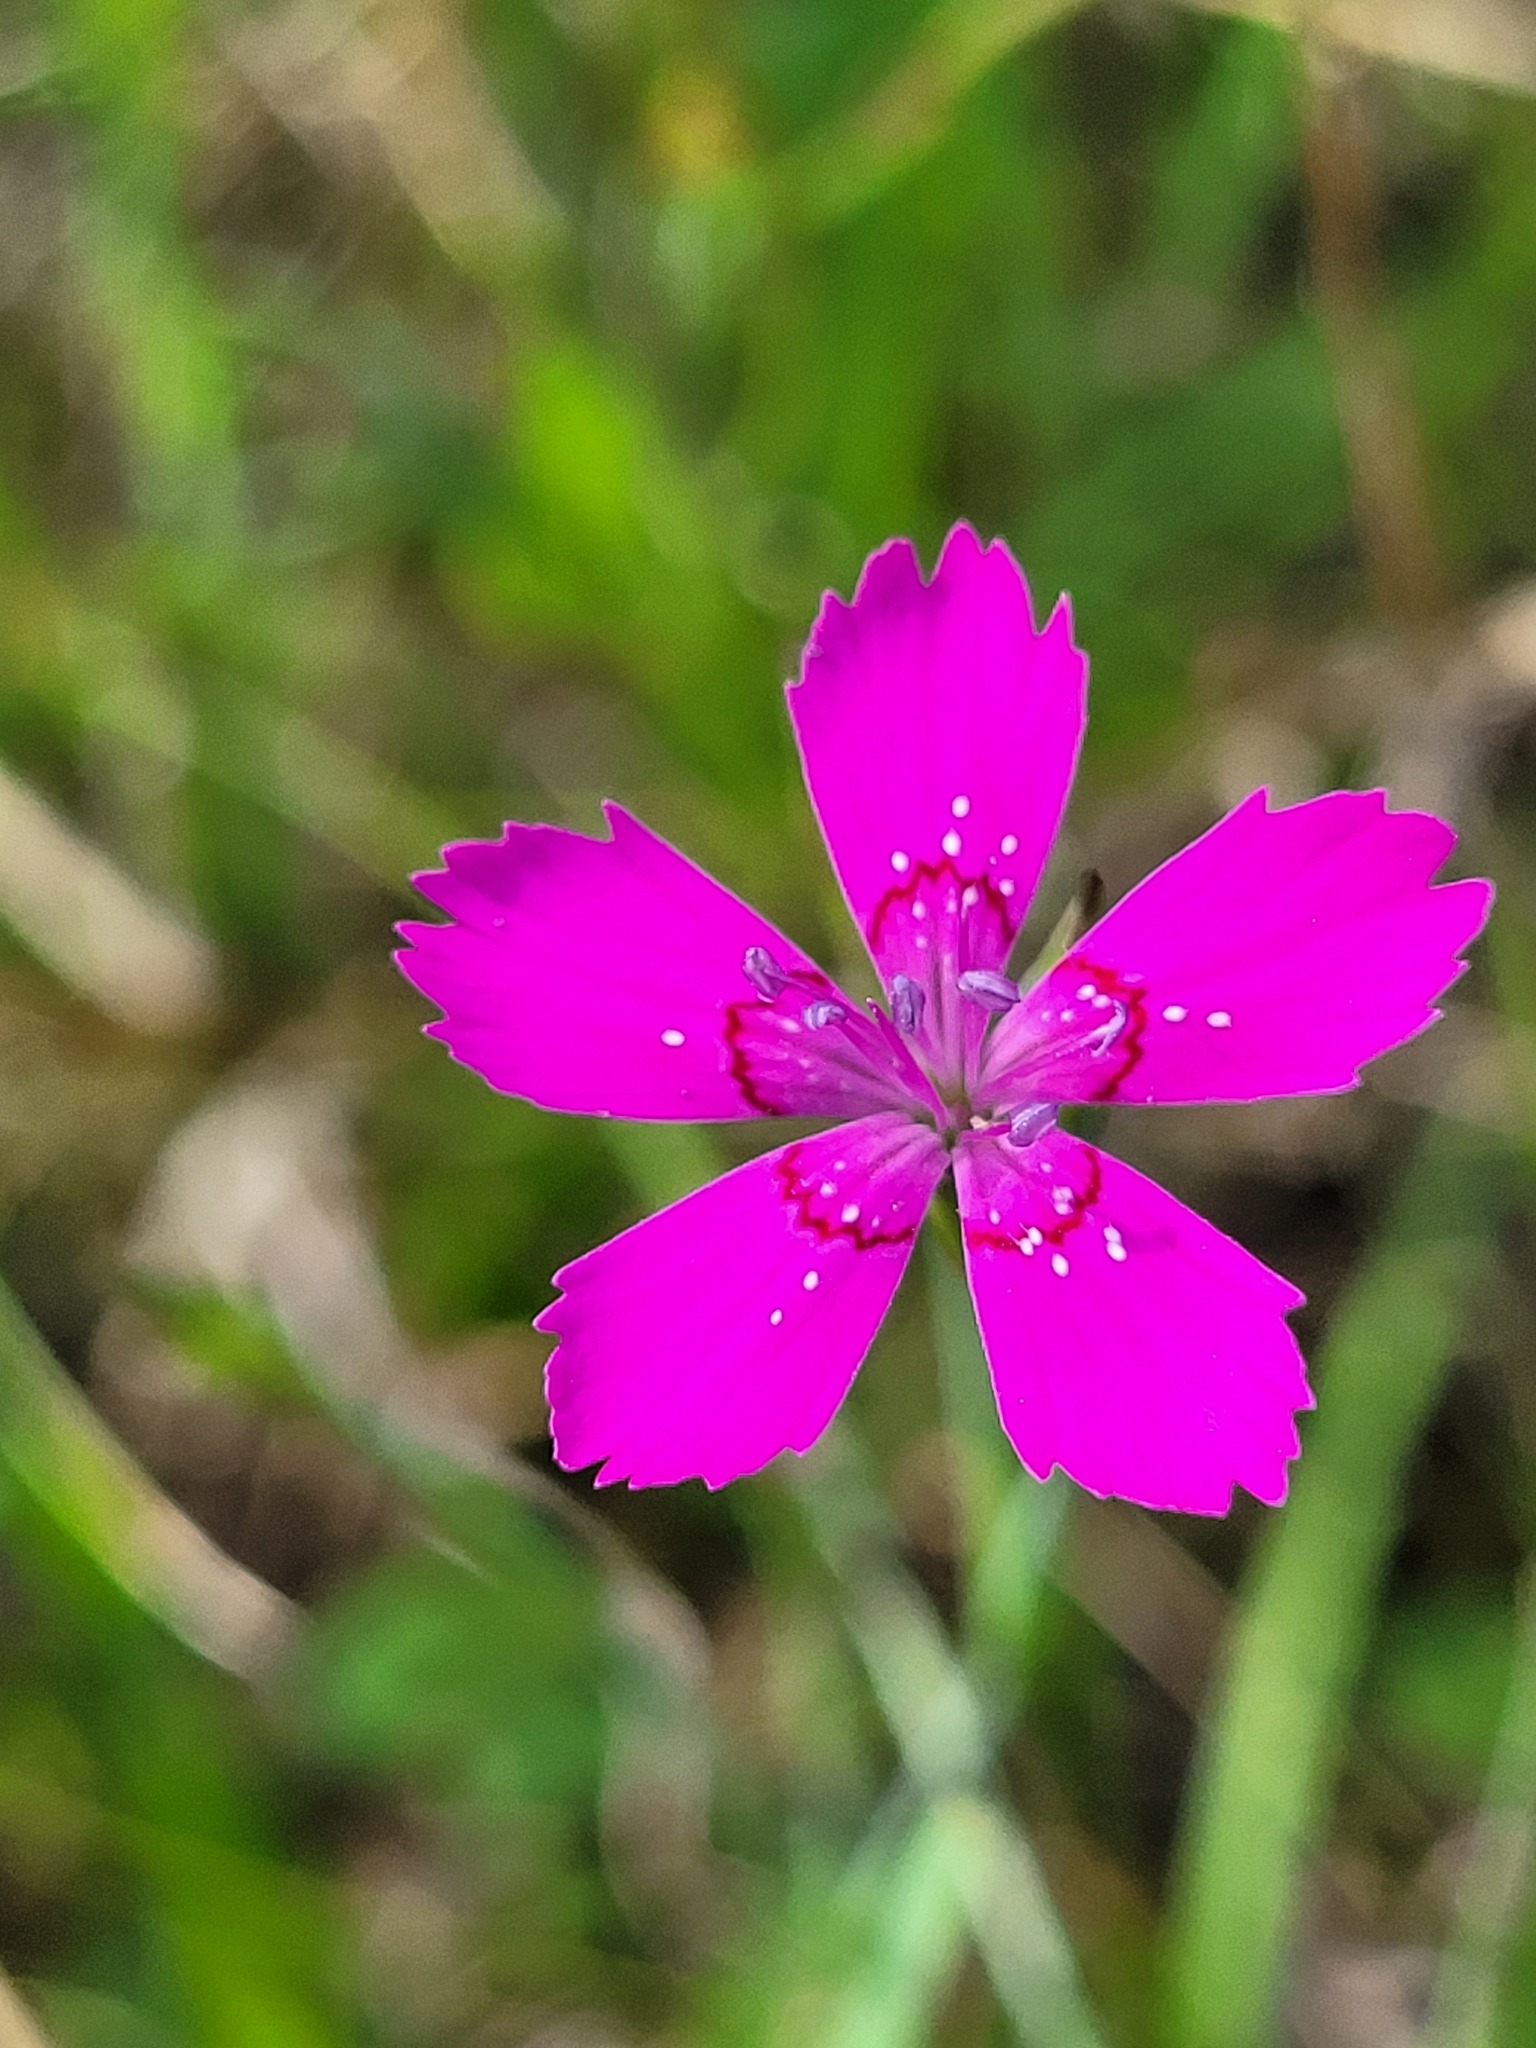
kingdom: Plantae
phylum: Tracheophyta
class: Magnoliopsida
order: Caryophyllales
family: Caryophyllaceae
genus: Dianthus
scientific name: Dianthus deltoides
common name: Maiden pink
